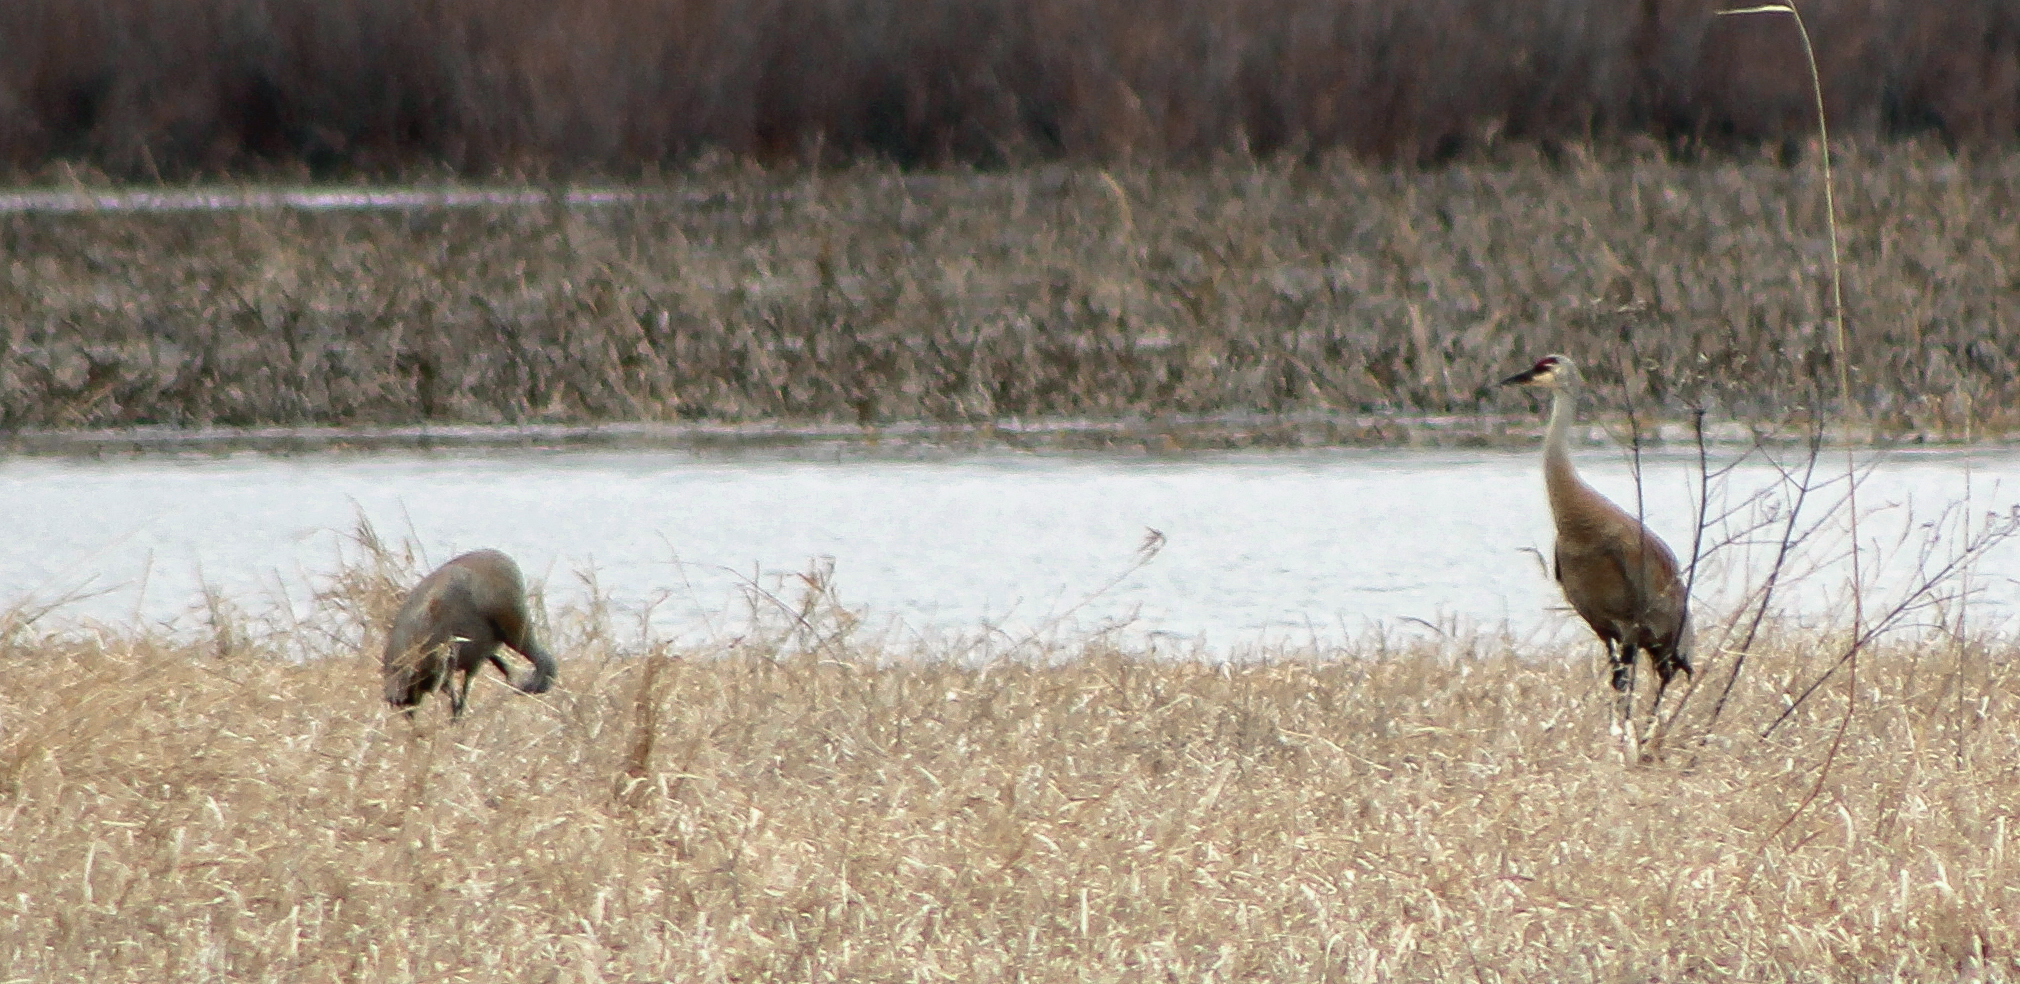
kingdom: Animalia
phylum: Chordata
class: Aves
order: Gruiformes
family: Gruidae
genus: Grus
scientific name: Grus canadensis
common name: Sandhill crane
